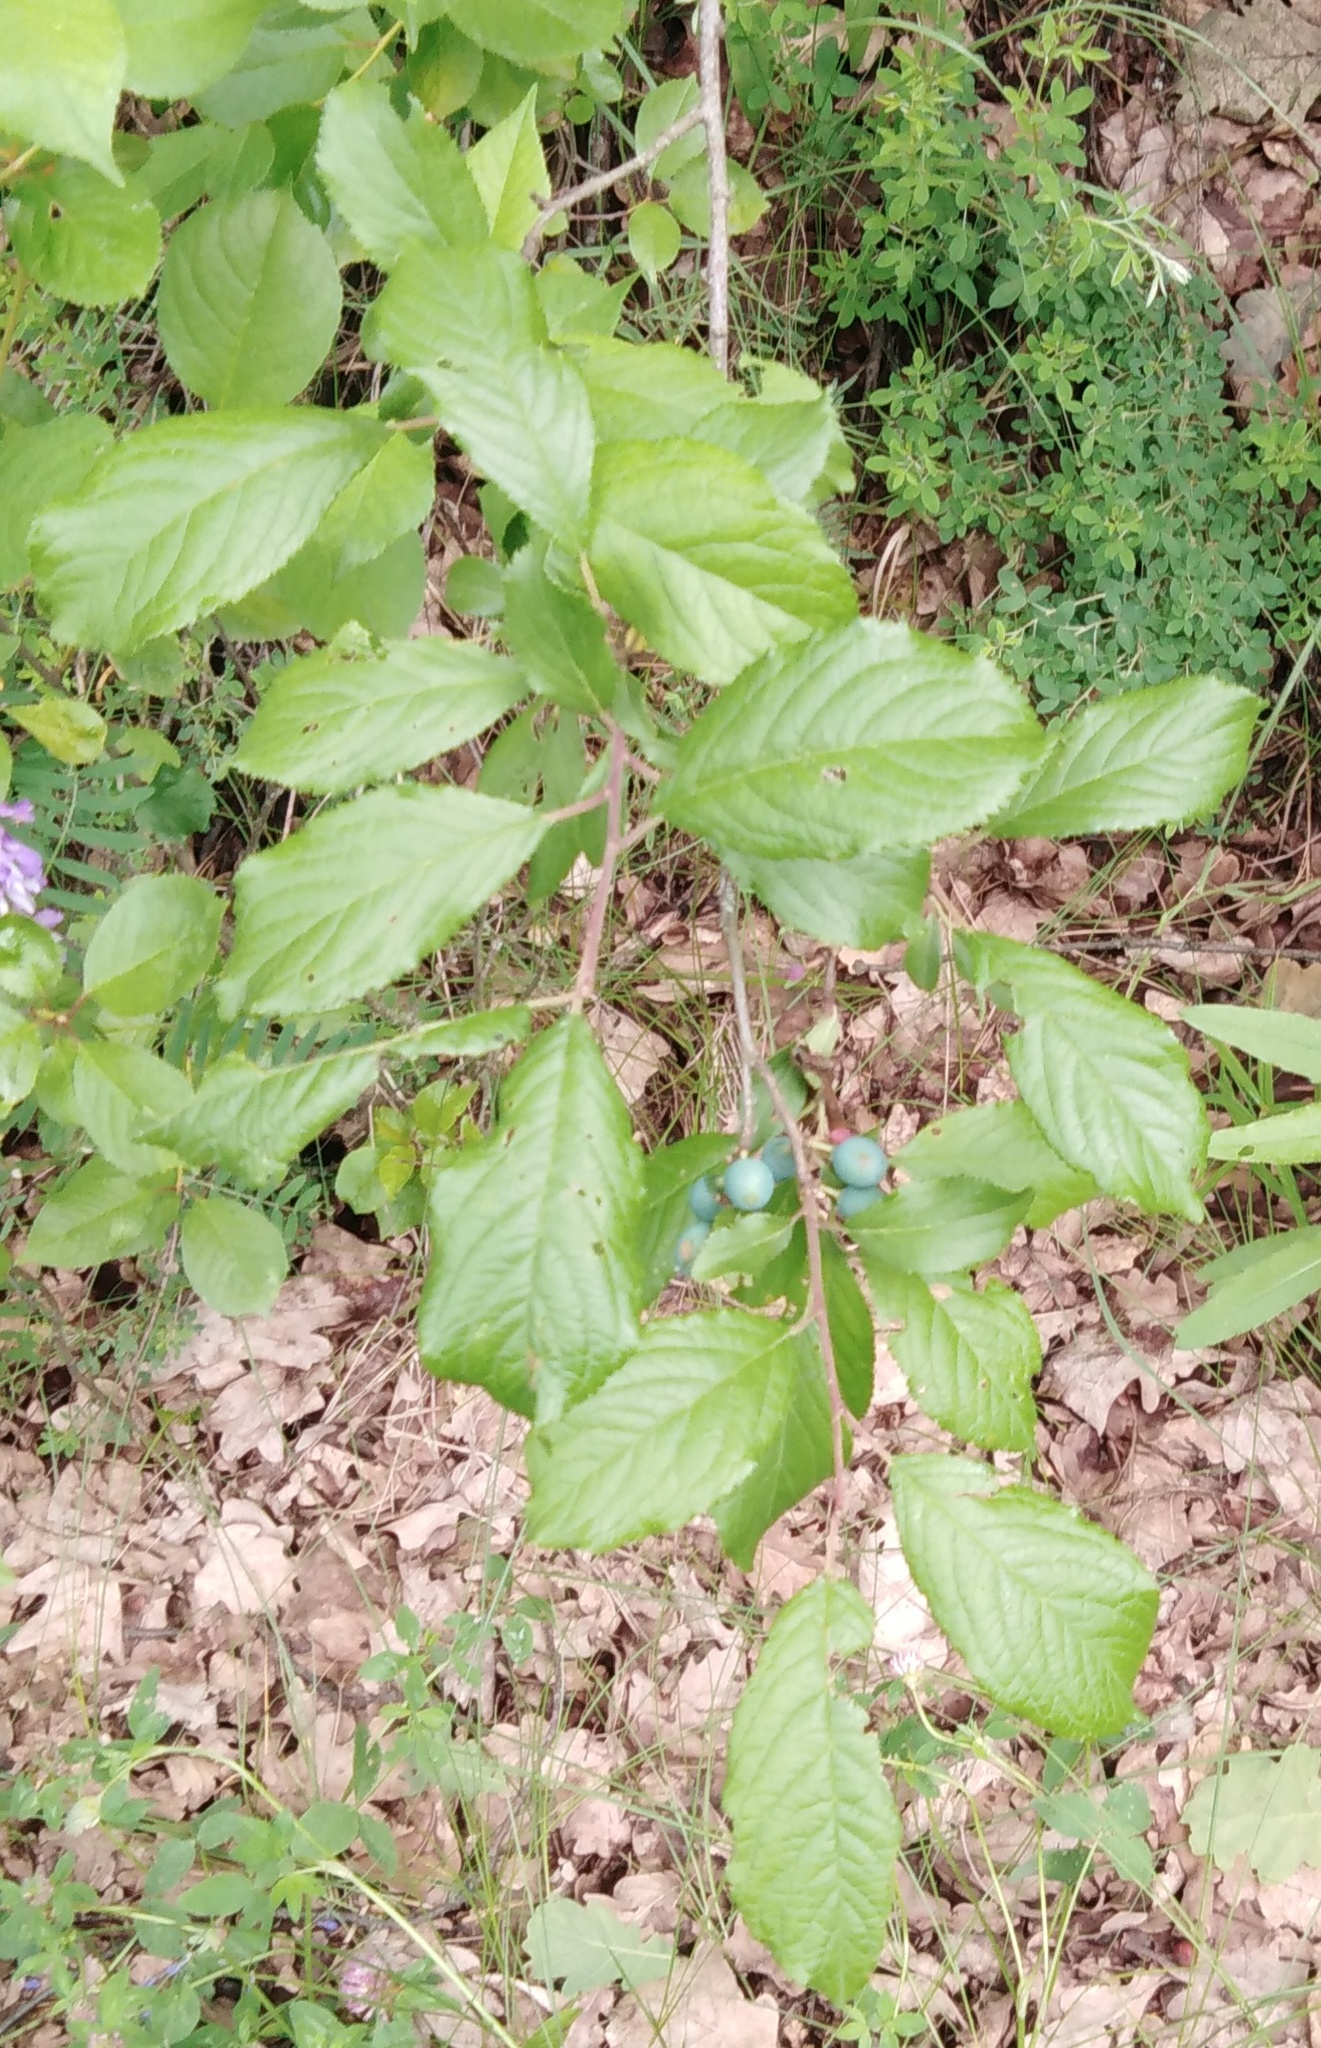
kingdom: Plantae
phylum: Tracheophyta
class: Magnoliopsida
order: Rosales
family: Rosaceae
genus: Prunus
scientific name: Prunus spinosa
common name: Blackthorn
